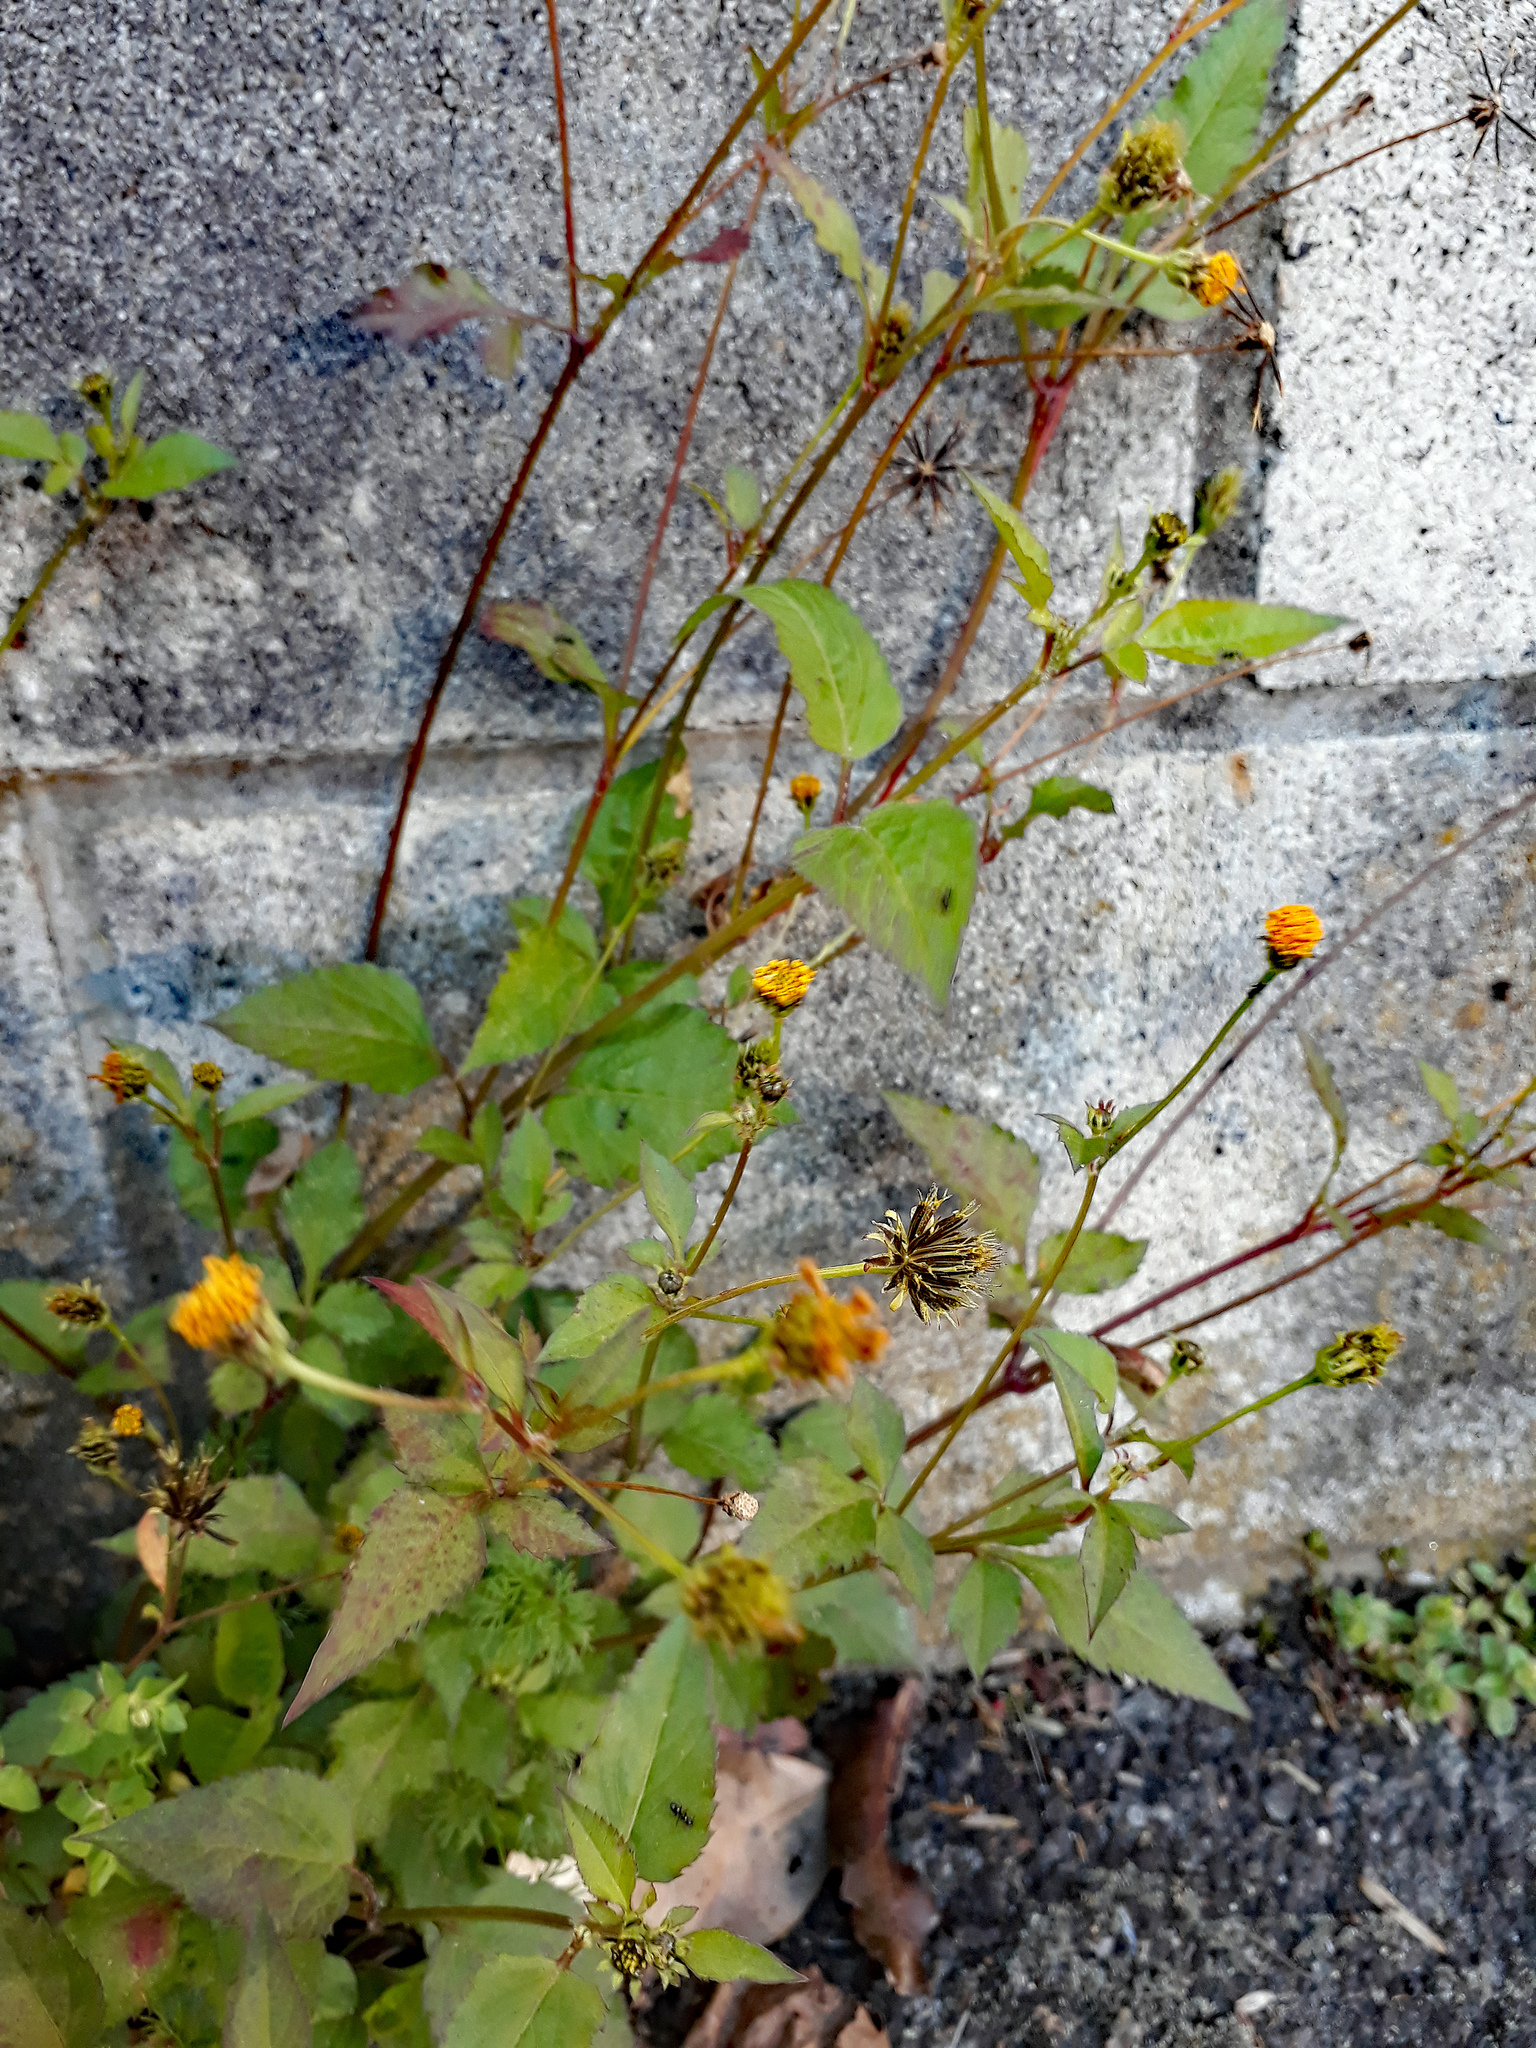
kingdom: Plantae
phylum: Tracheophyta
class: Magnoliopsida
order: Asterales
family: Asteraceae
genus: Bidens
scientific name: Bidens pilosa
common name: Black-jack
